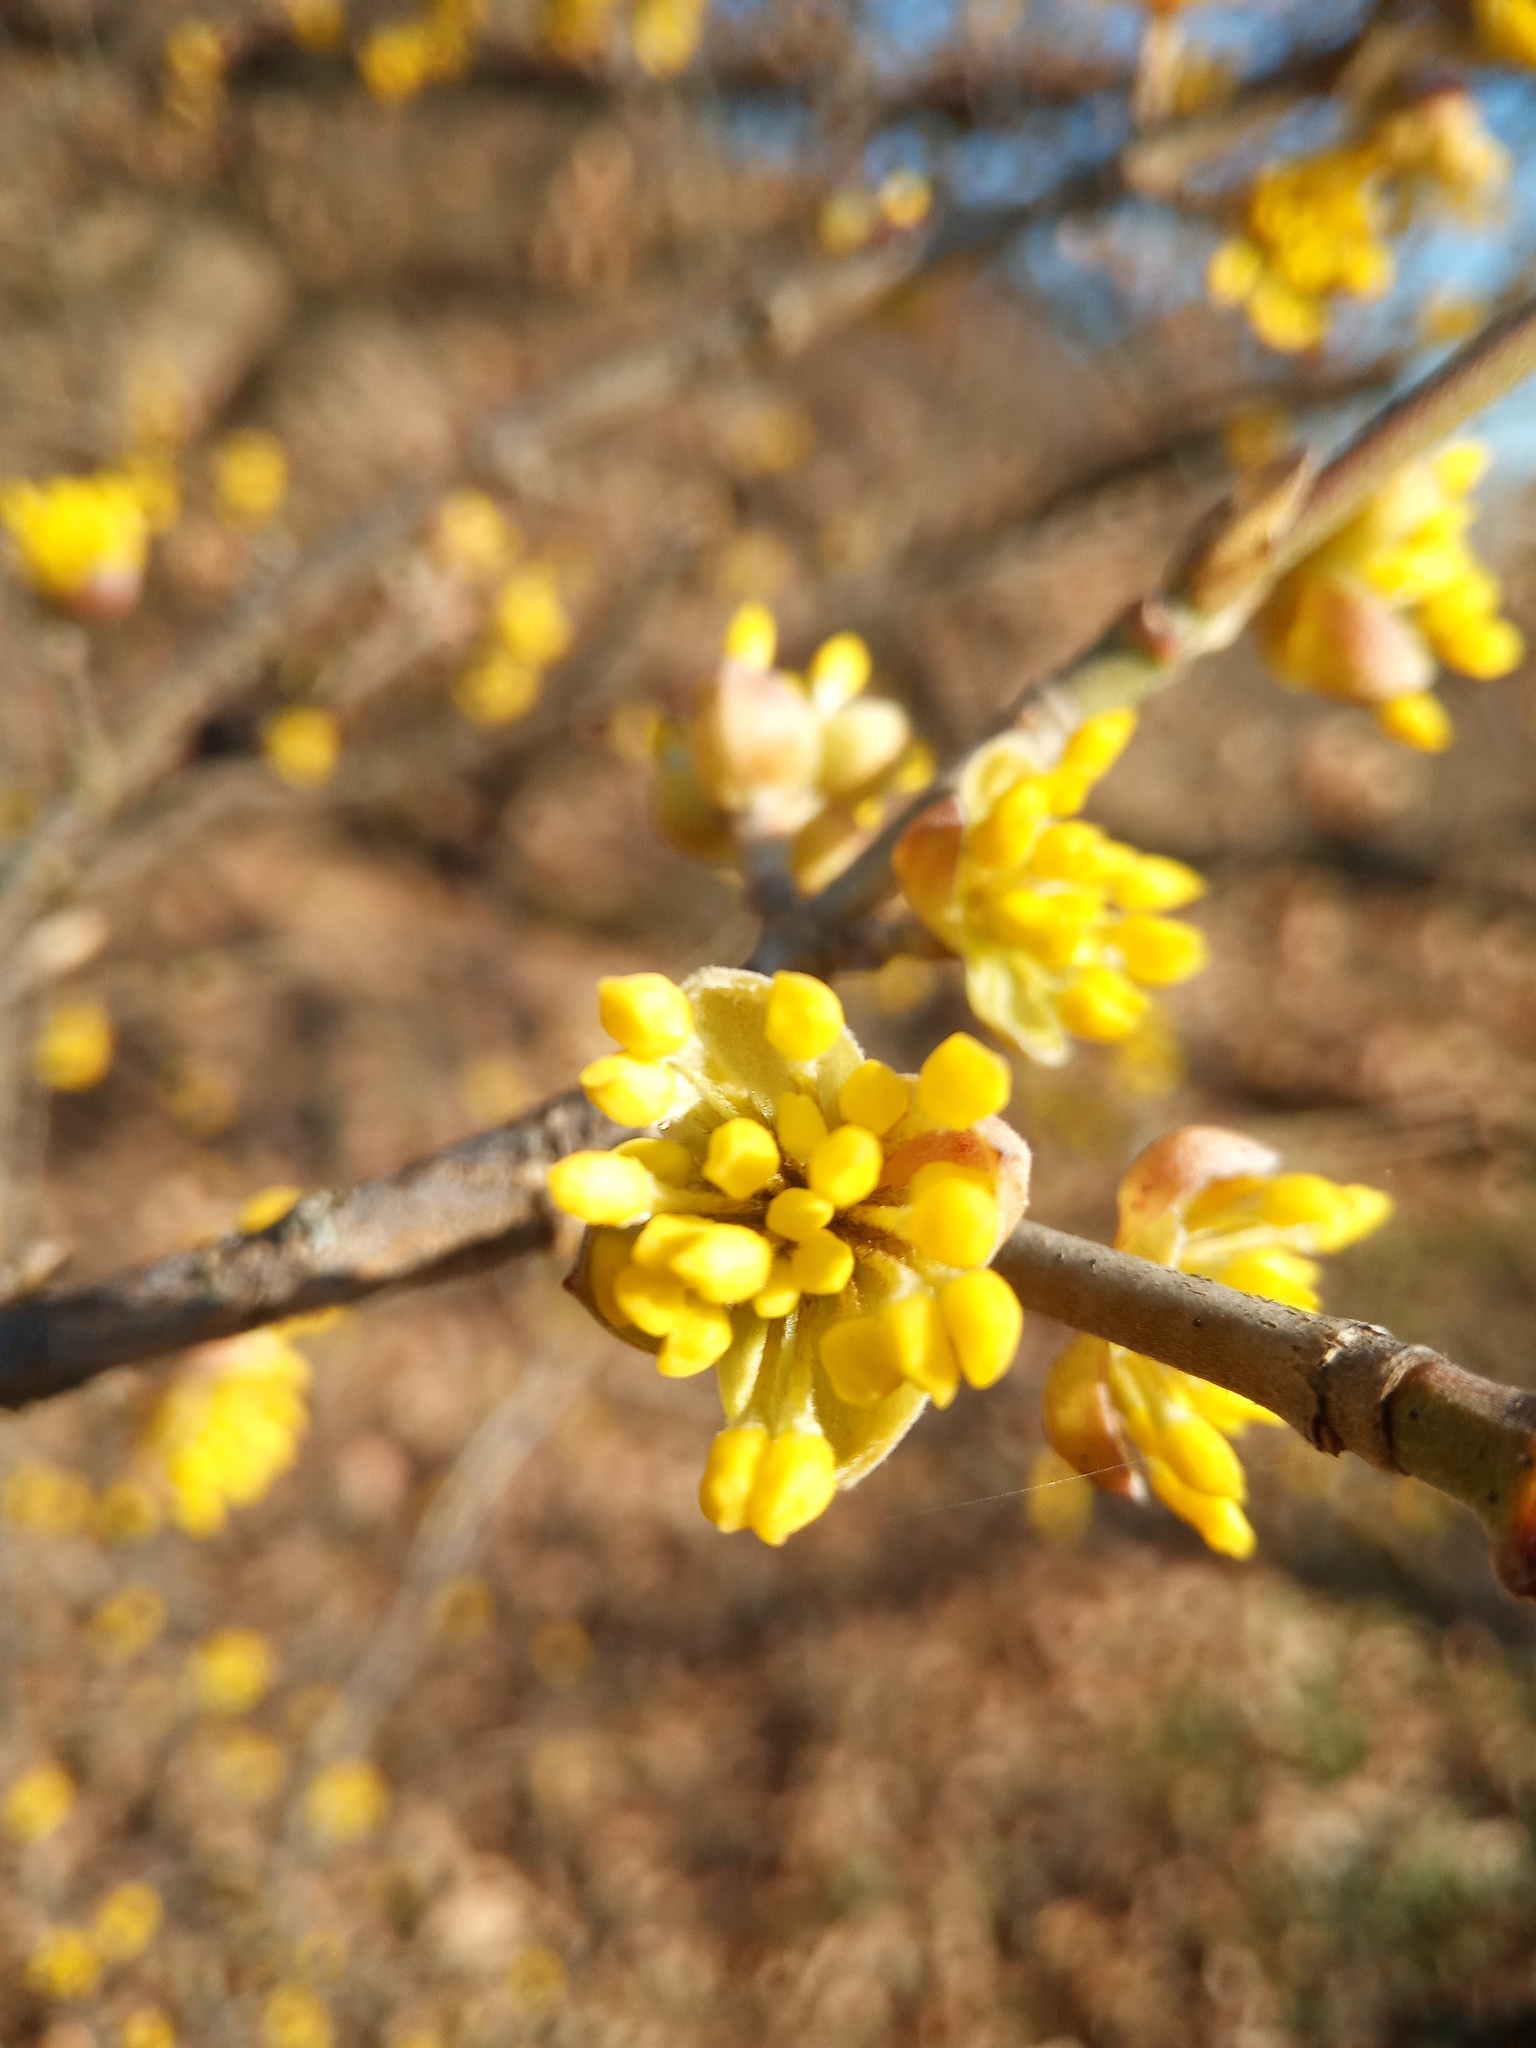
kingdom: Plantae
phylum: Tracheophyta
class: Magnoliopsida
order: Cornales
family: Cornaceae
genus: Cornus
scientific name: Cornus mas
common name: Cornelian-cherry
